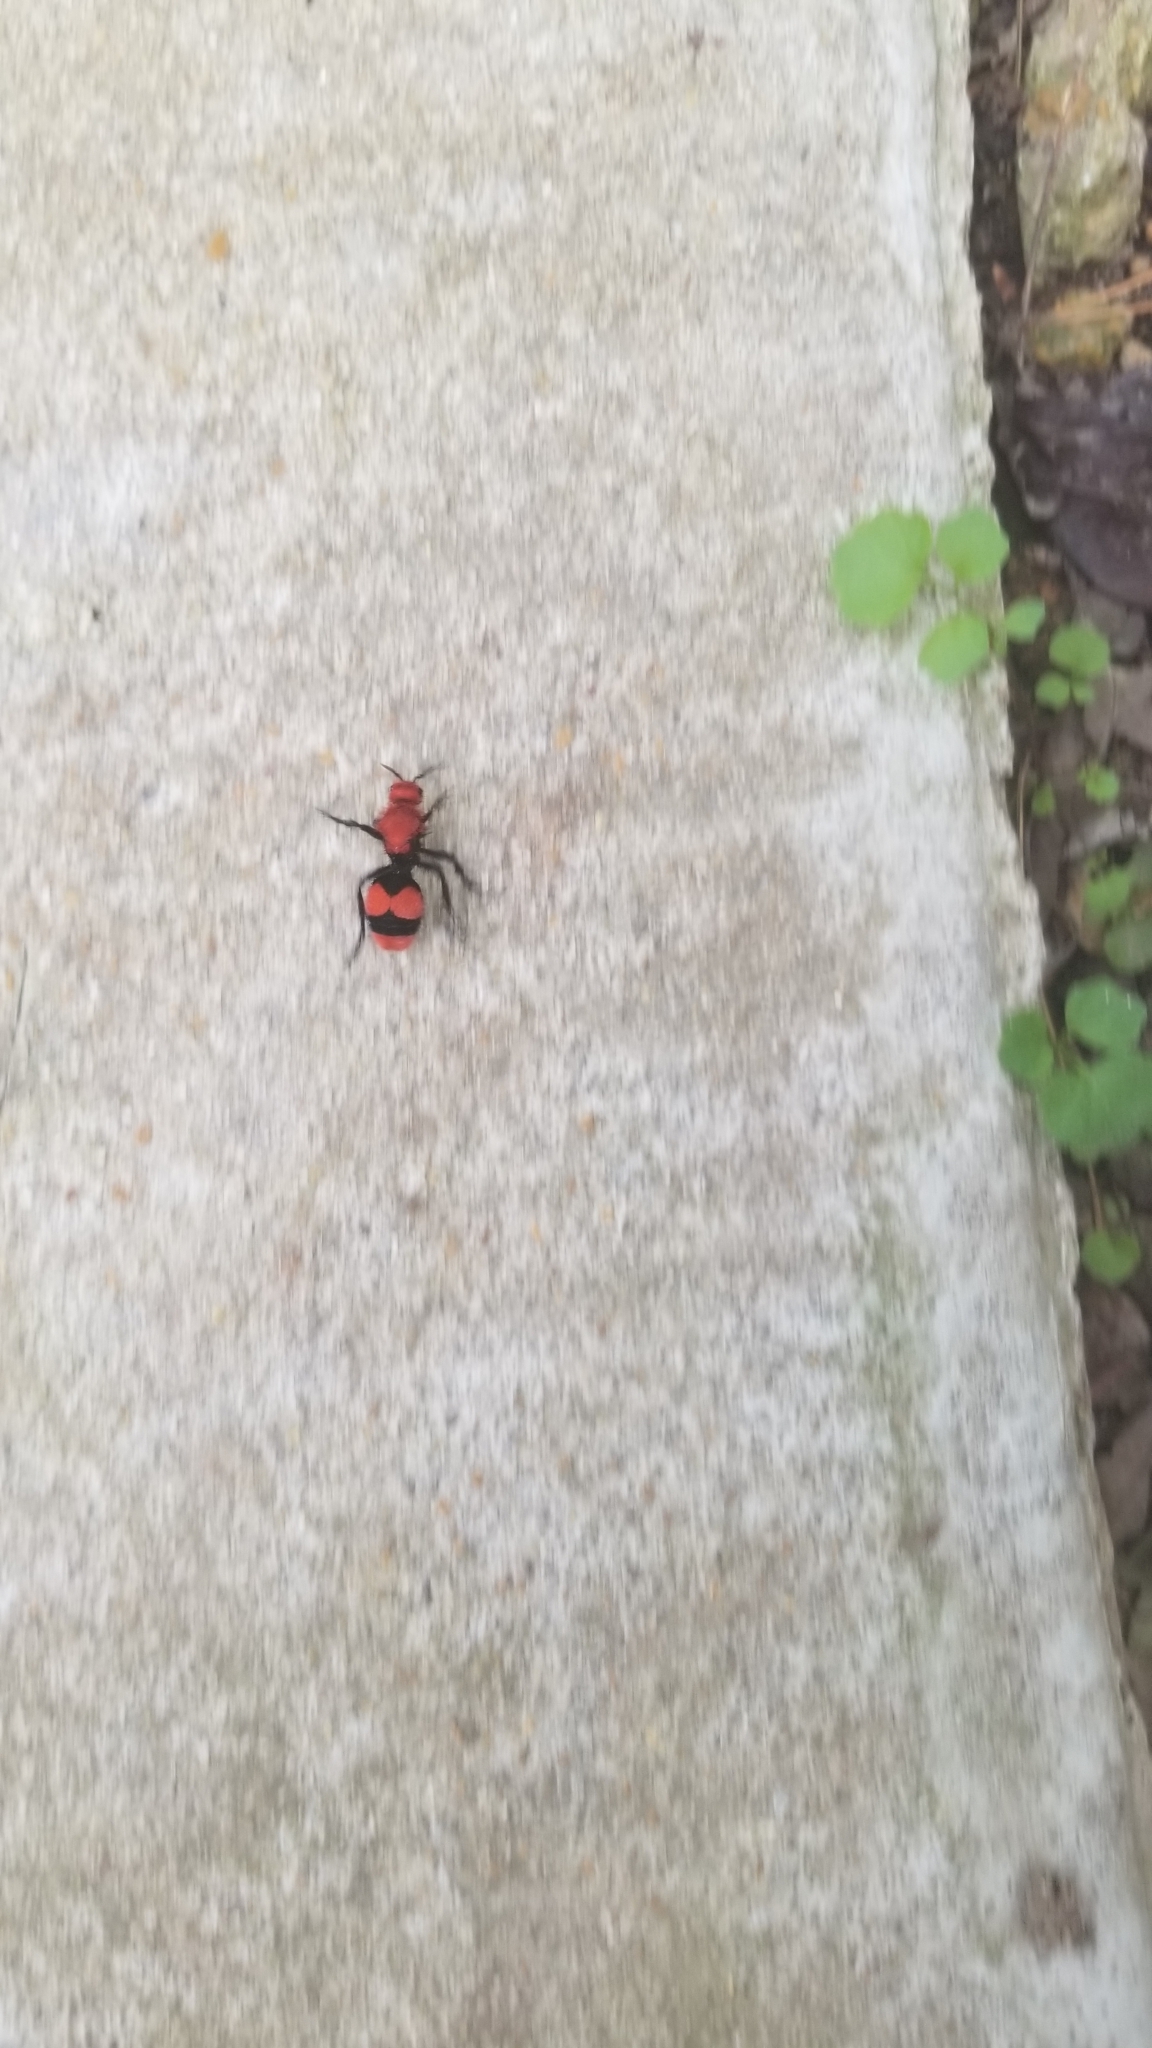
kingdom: Animalia
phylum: Arthropoda
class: Insecta
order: Hymenoptera
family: Mutillidae
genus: Dasymutilla
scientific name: Dasymutilla occidentalis
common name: Common eastern velvet ant
